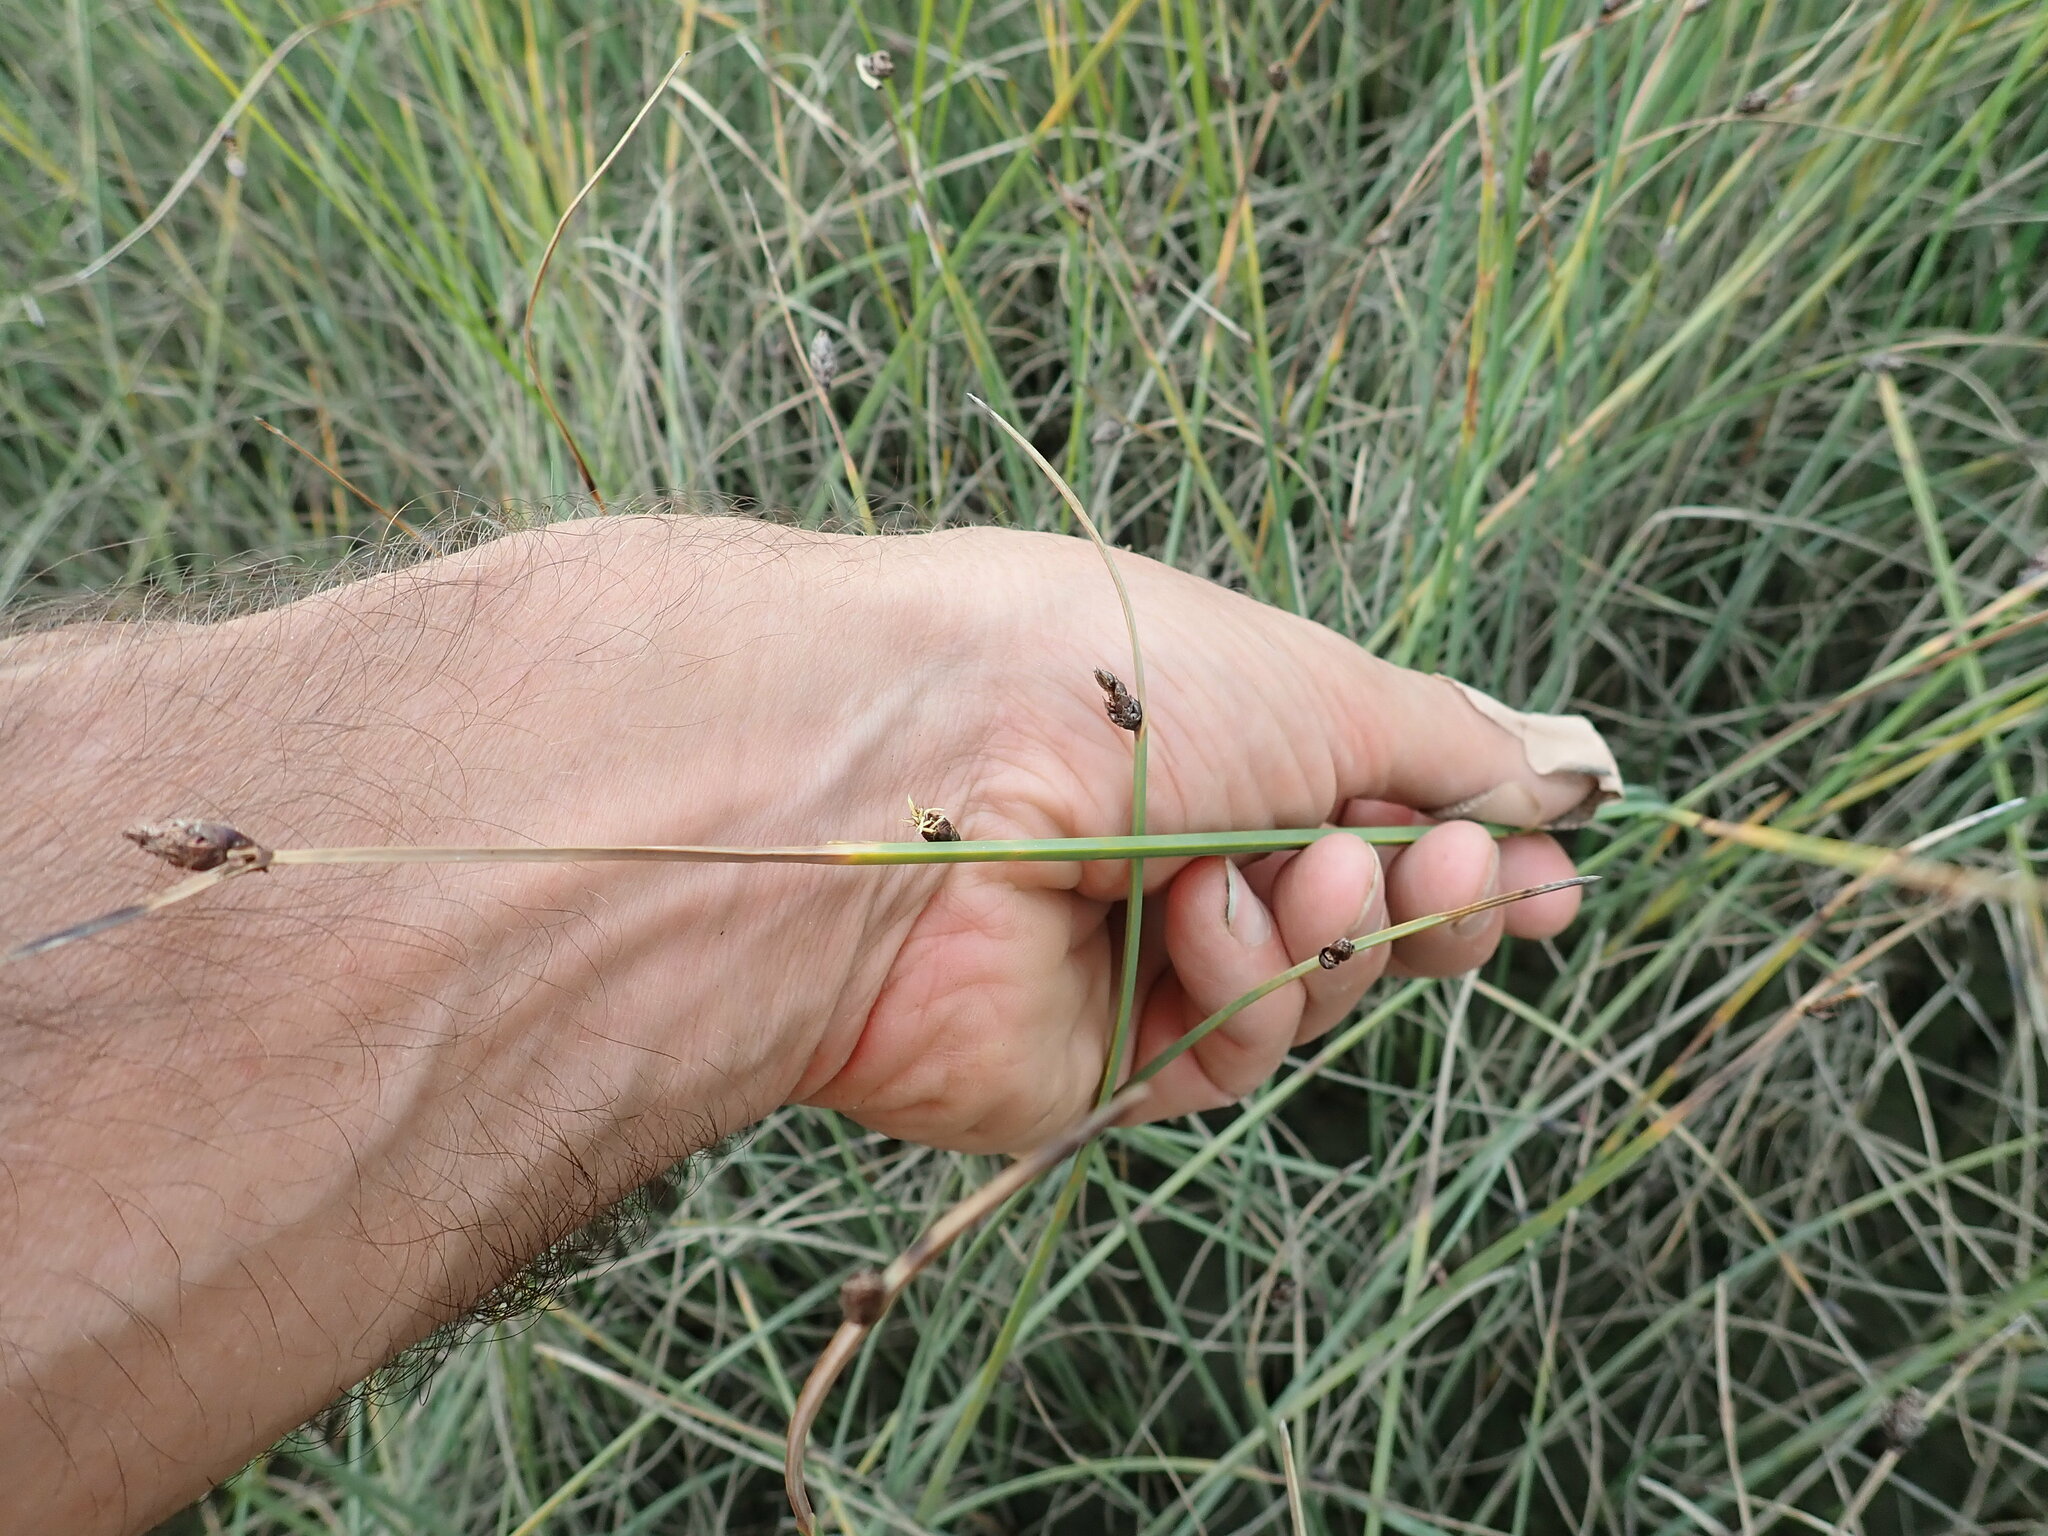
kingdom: Plantae
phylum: Tracheophyta
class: Liliopsida
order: Poales
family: Cyperaceae
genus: Schoenoplectus
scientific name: Schoenoplectus pungens
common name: Sharp club-rush
